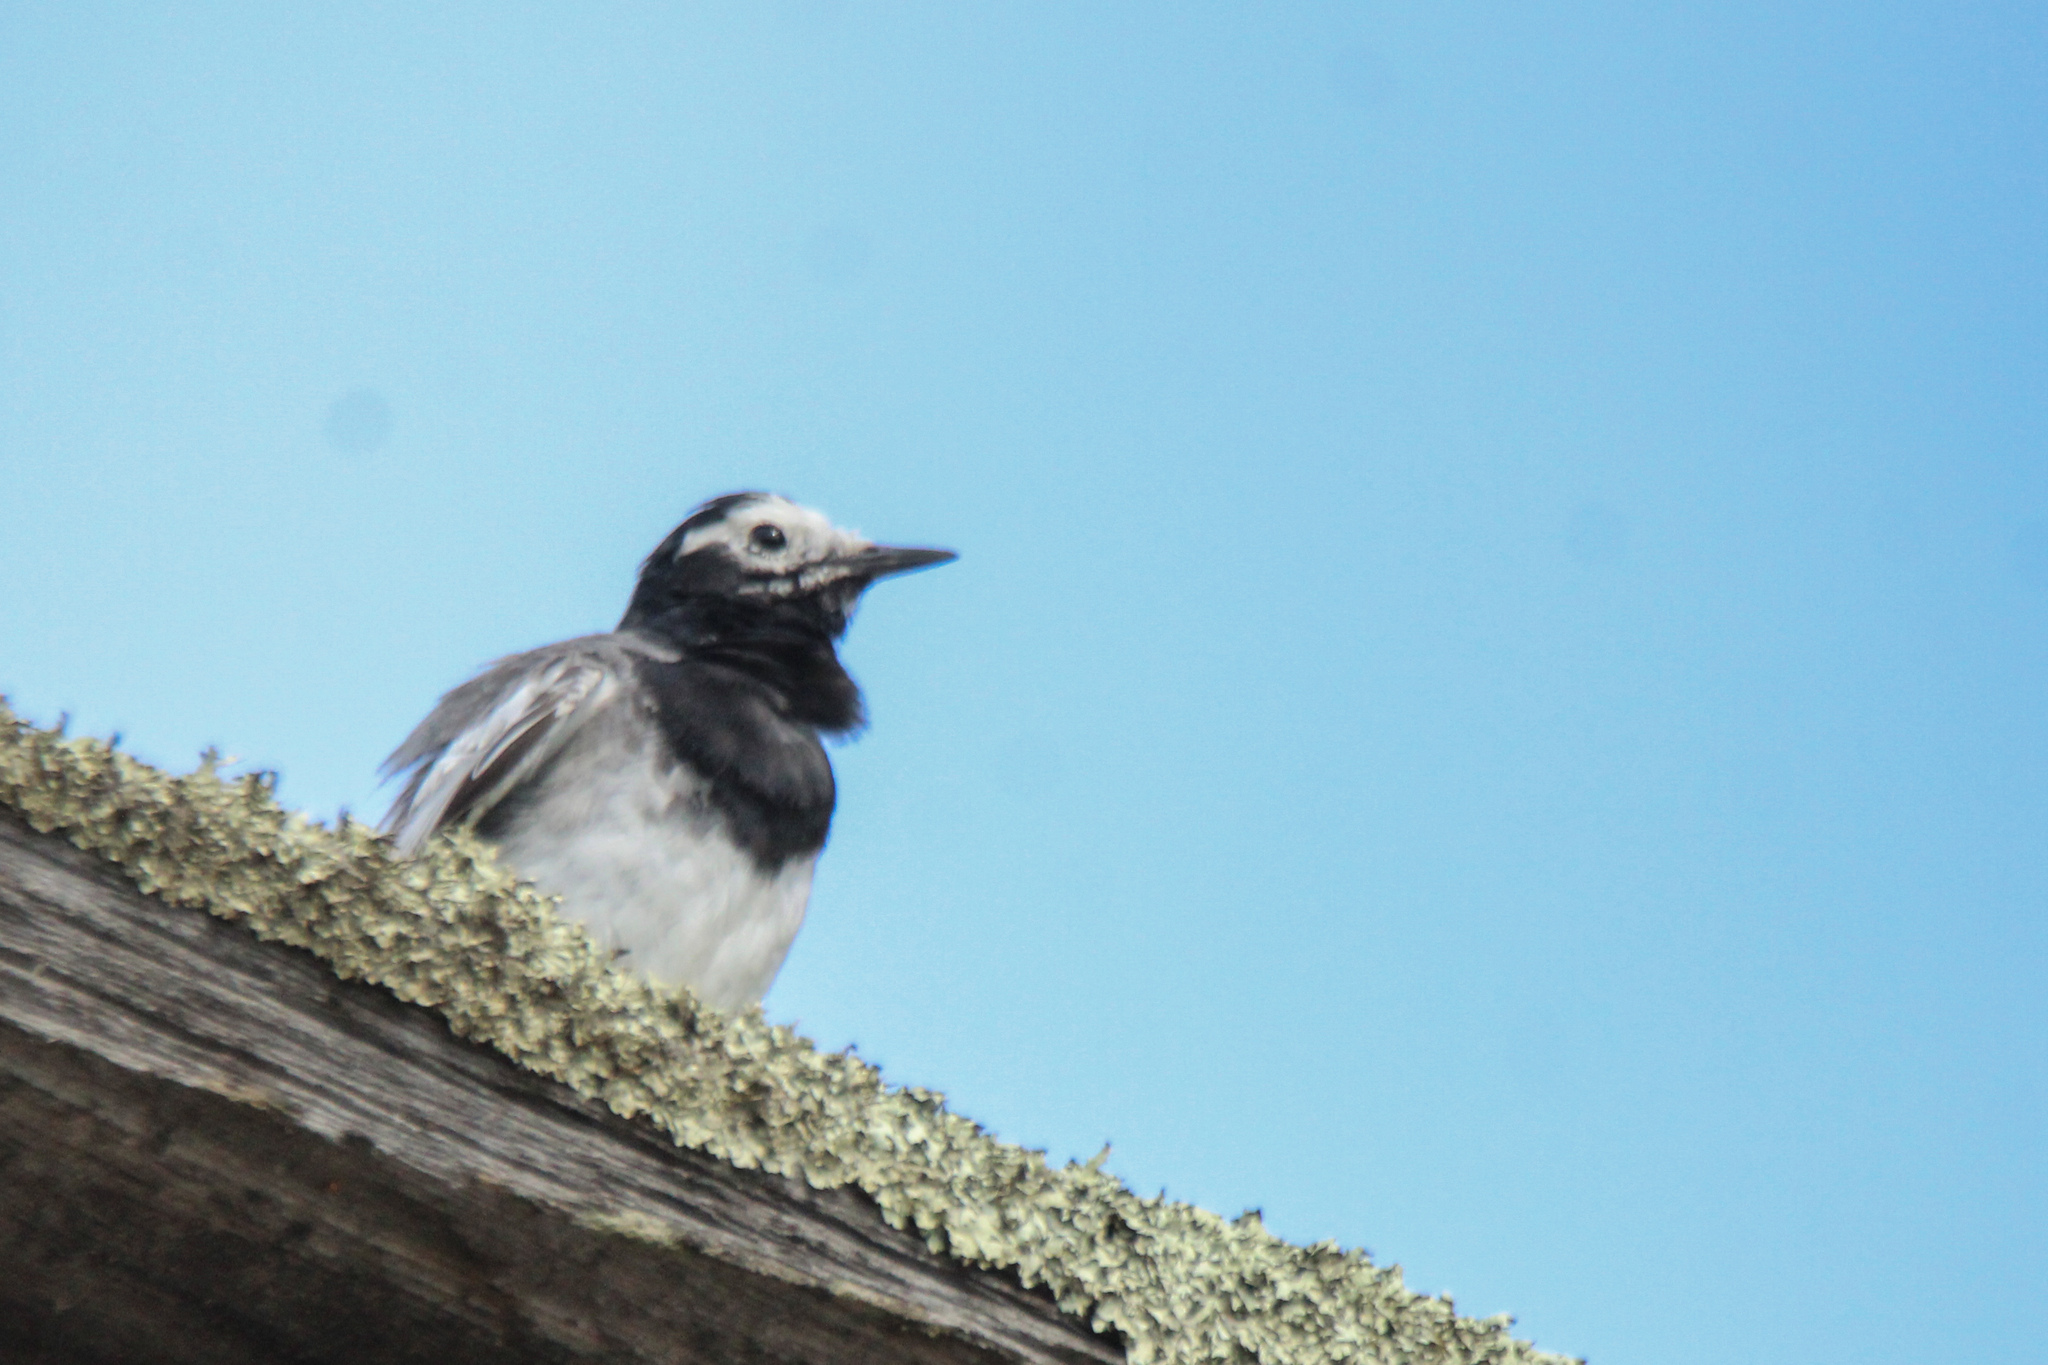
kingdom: Animalia
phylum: Chordata
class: Aves
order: Passeriformes
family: Motacillidae
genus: Motacilla
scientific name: Motacilla alba
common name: White wagtail
